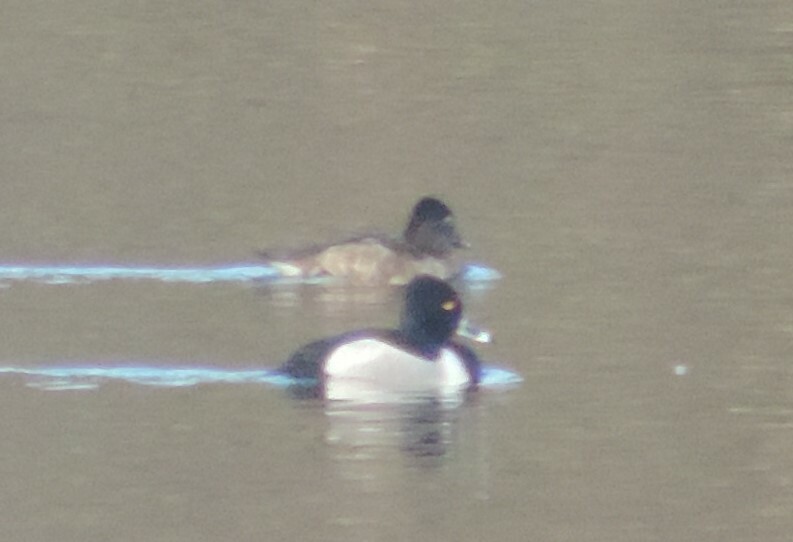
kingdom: Animalia
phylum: Chordata
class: Aves
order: Anseriformes
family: Anatidae
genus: Aythya
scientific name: Aythya collaris
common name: Ring-necked duck
